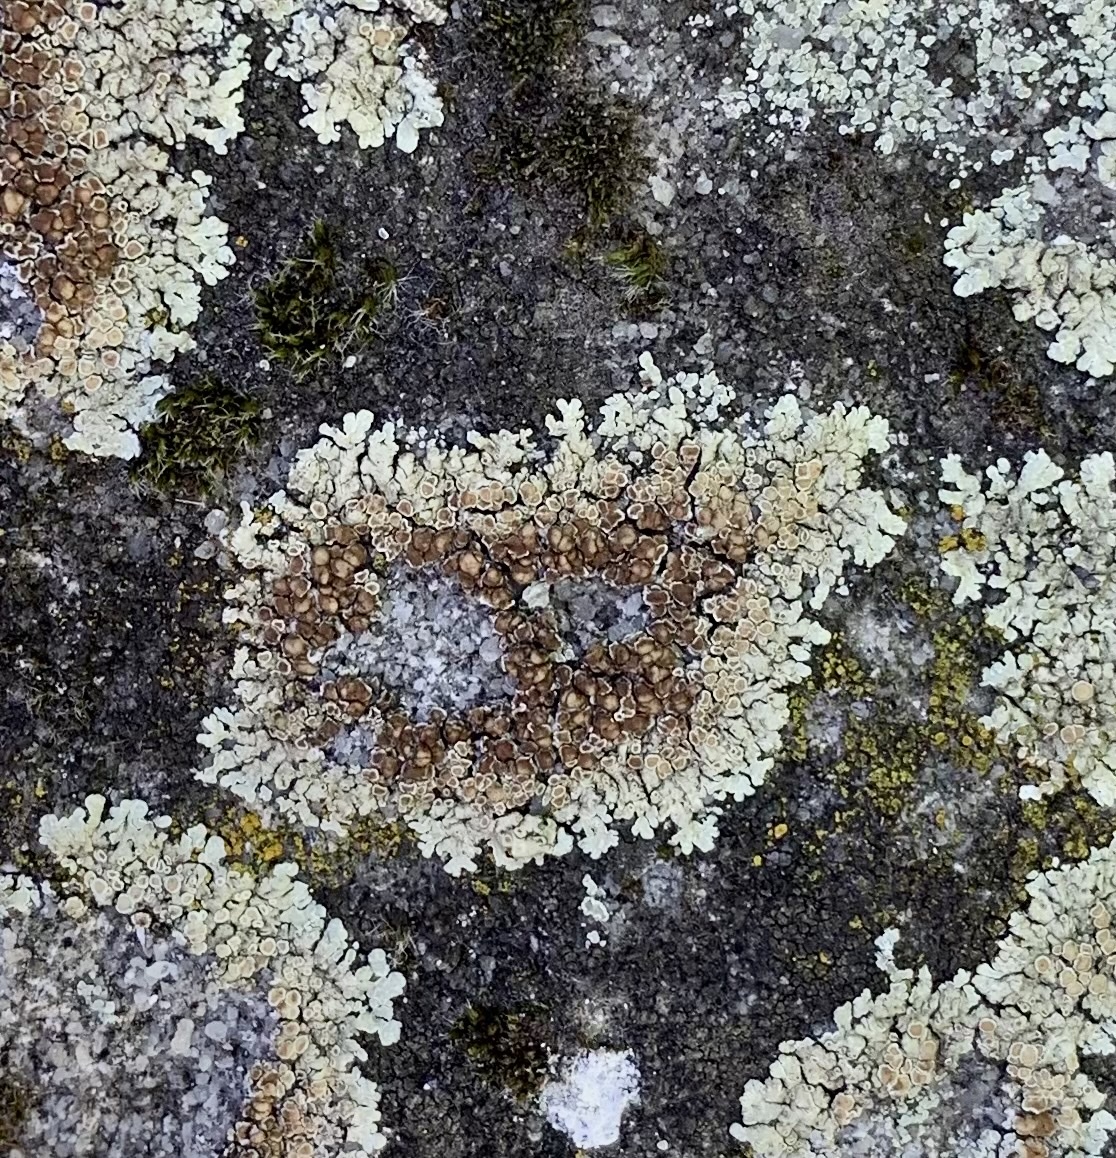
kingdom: Fungi
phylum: Ascomycota
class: Lecanoromycetes
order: Lecanorales
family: Lecanoraceae
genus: Protoparmeliopsis
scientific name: Protoparmeliopsis muralis
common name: Stonewall rim lichen
